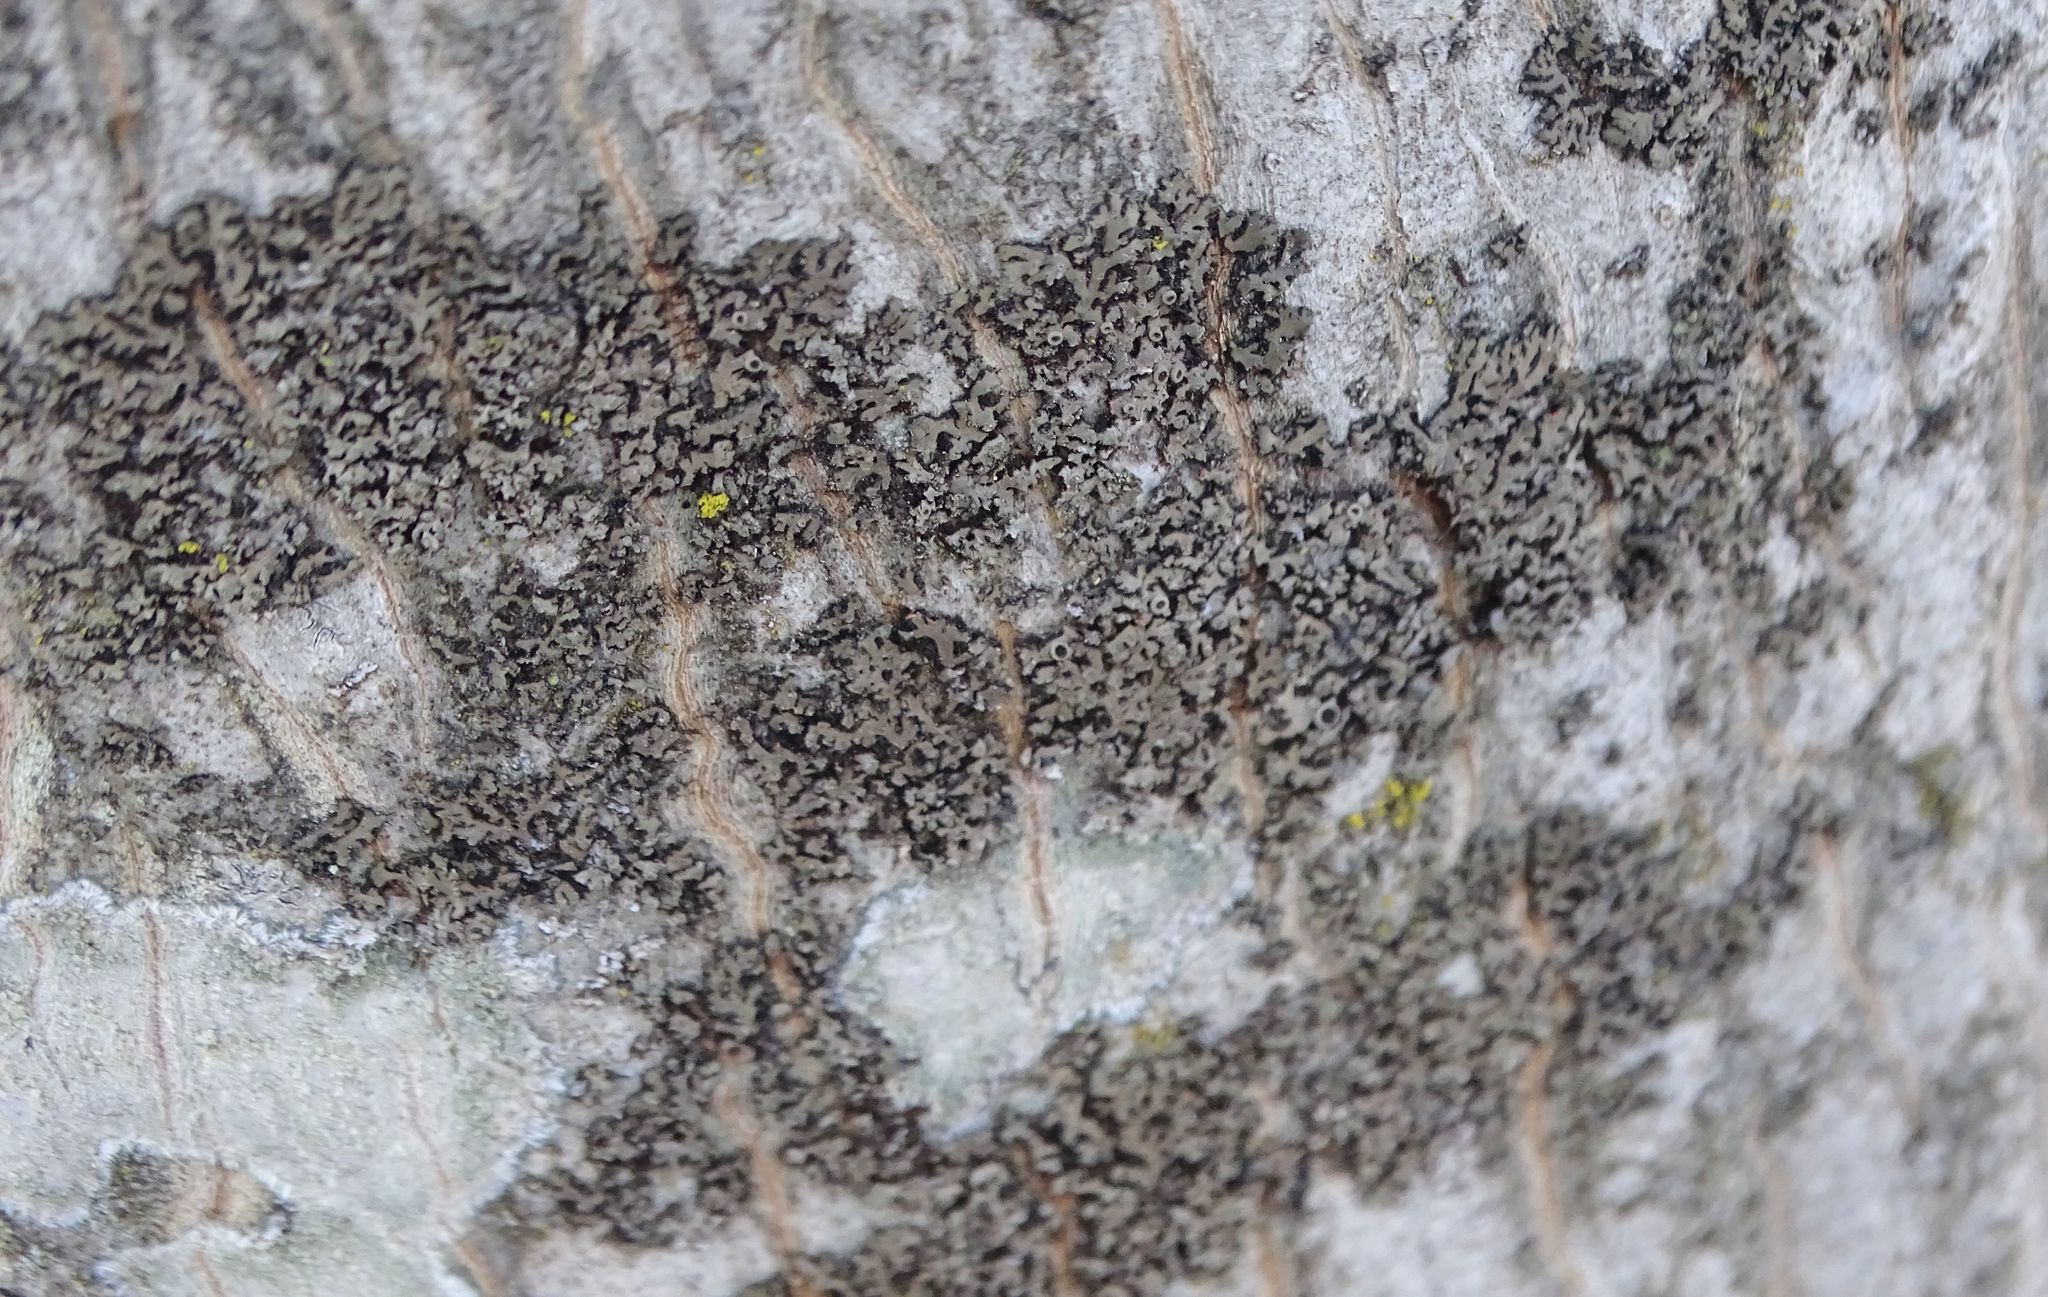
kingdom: Fungi
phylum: Ascomycota
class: Lecanoromycetes
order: Caliciales
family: Physciaceae
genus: Phaeophyscia
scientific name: Phaeophyscia rubropulchra
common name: Orange-cored shadow lichen
